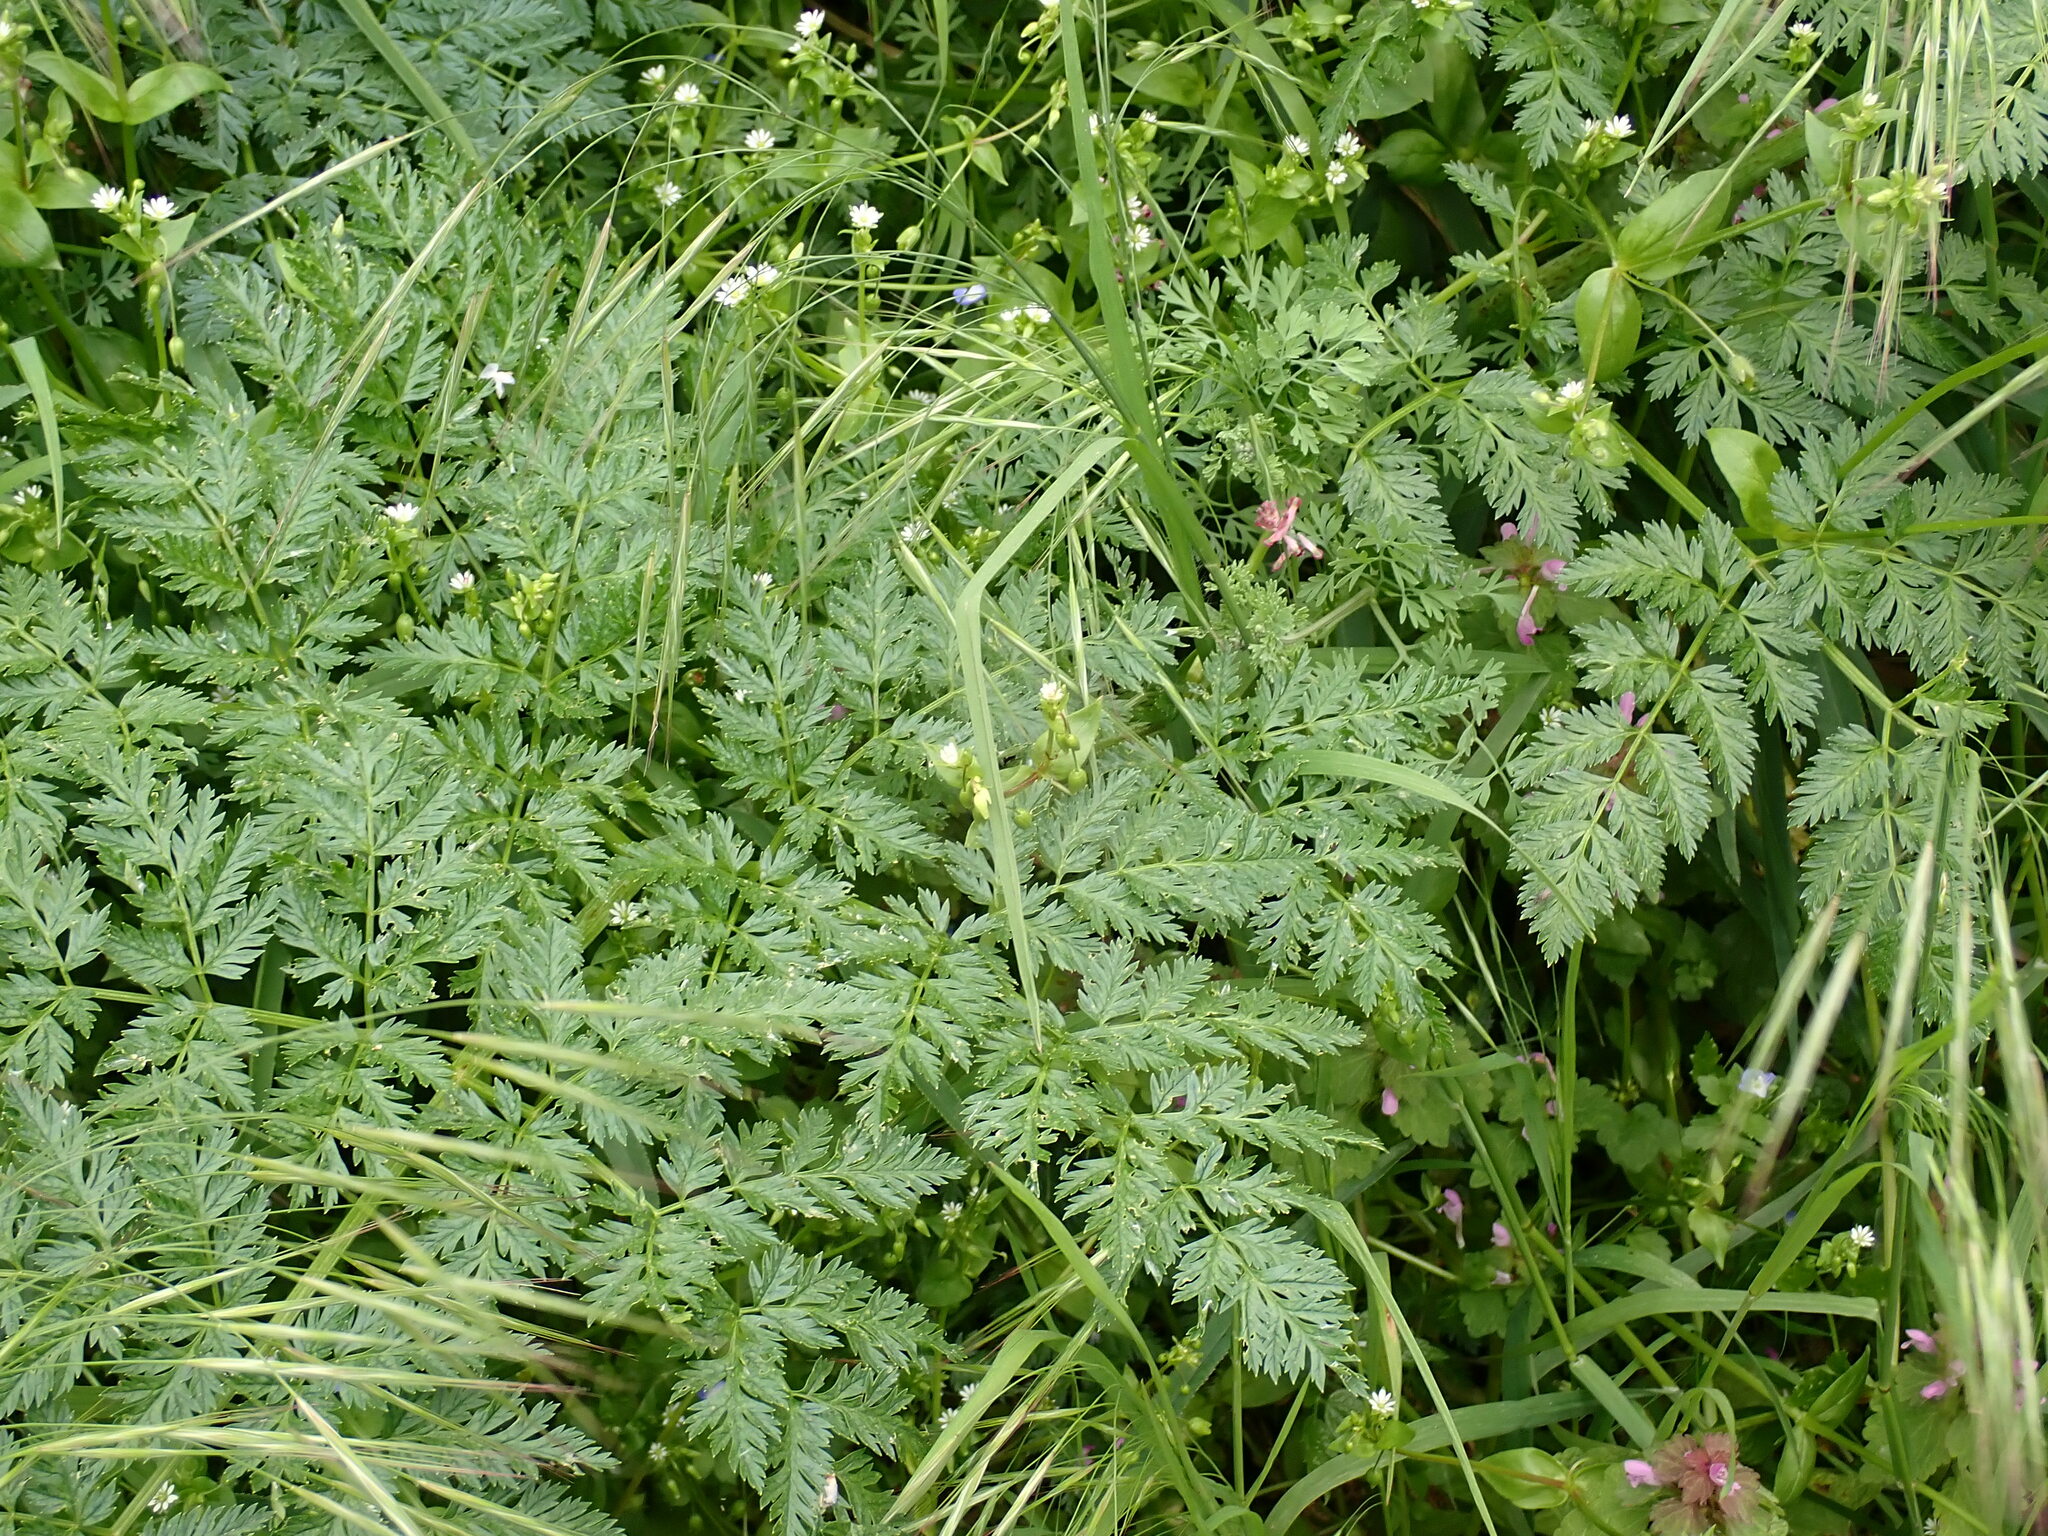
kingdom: Plantae
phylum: Tracheophyta
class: Magnoliopsida
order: Apiales
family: Apiaceae
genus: Anthriscus
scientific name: Anthriscus sylvestris
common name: Cow parsley
